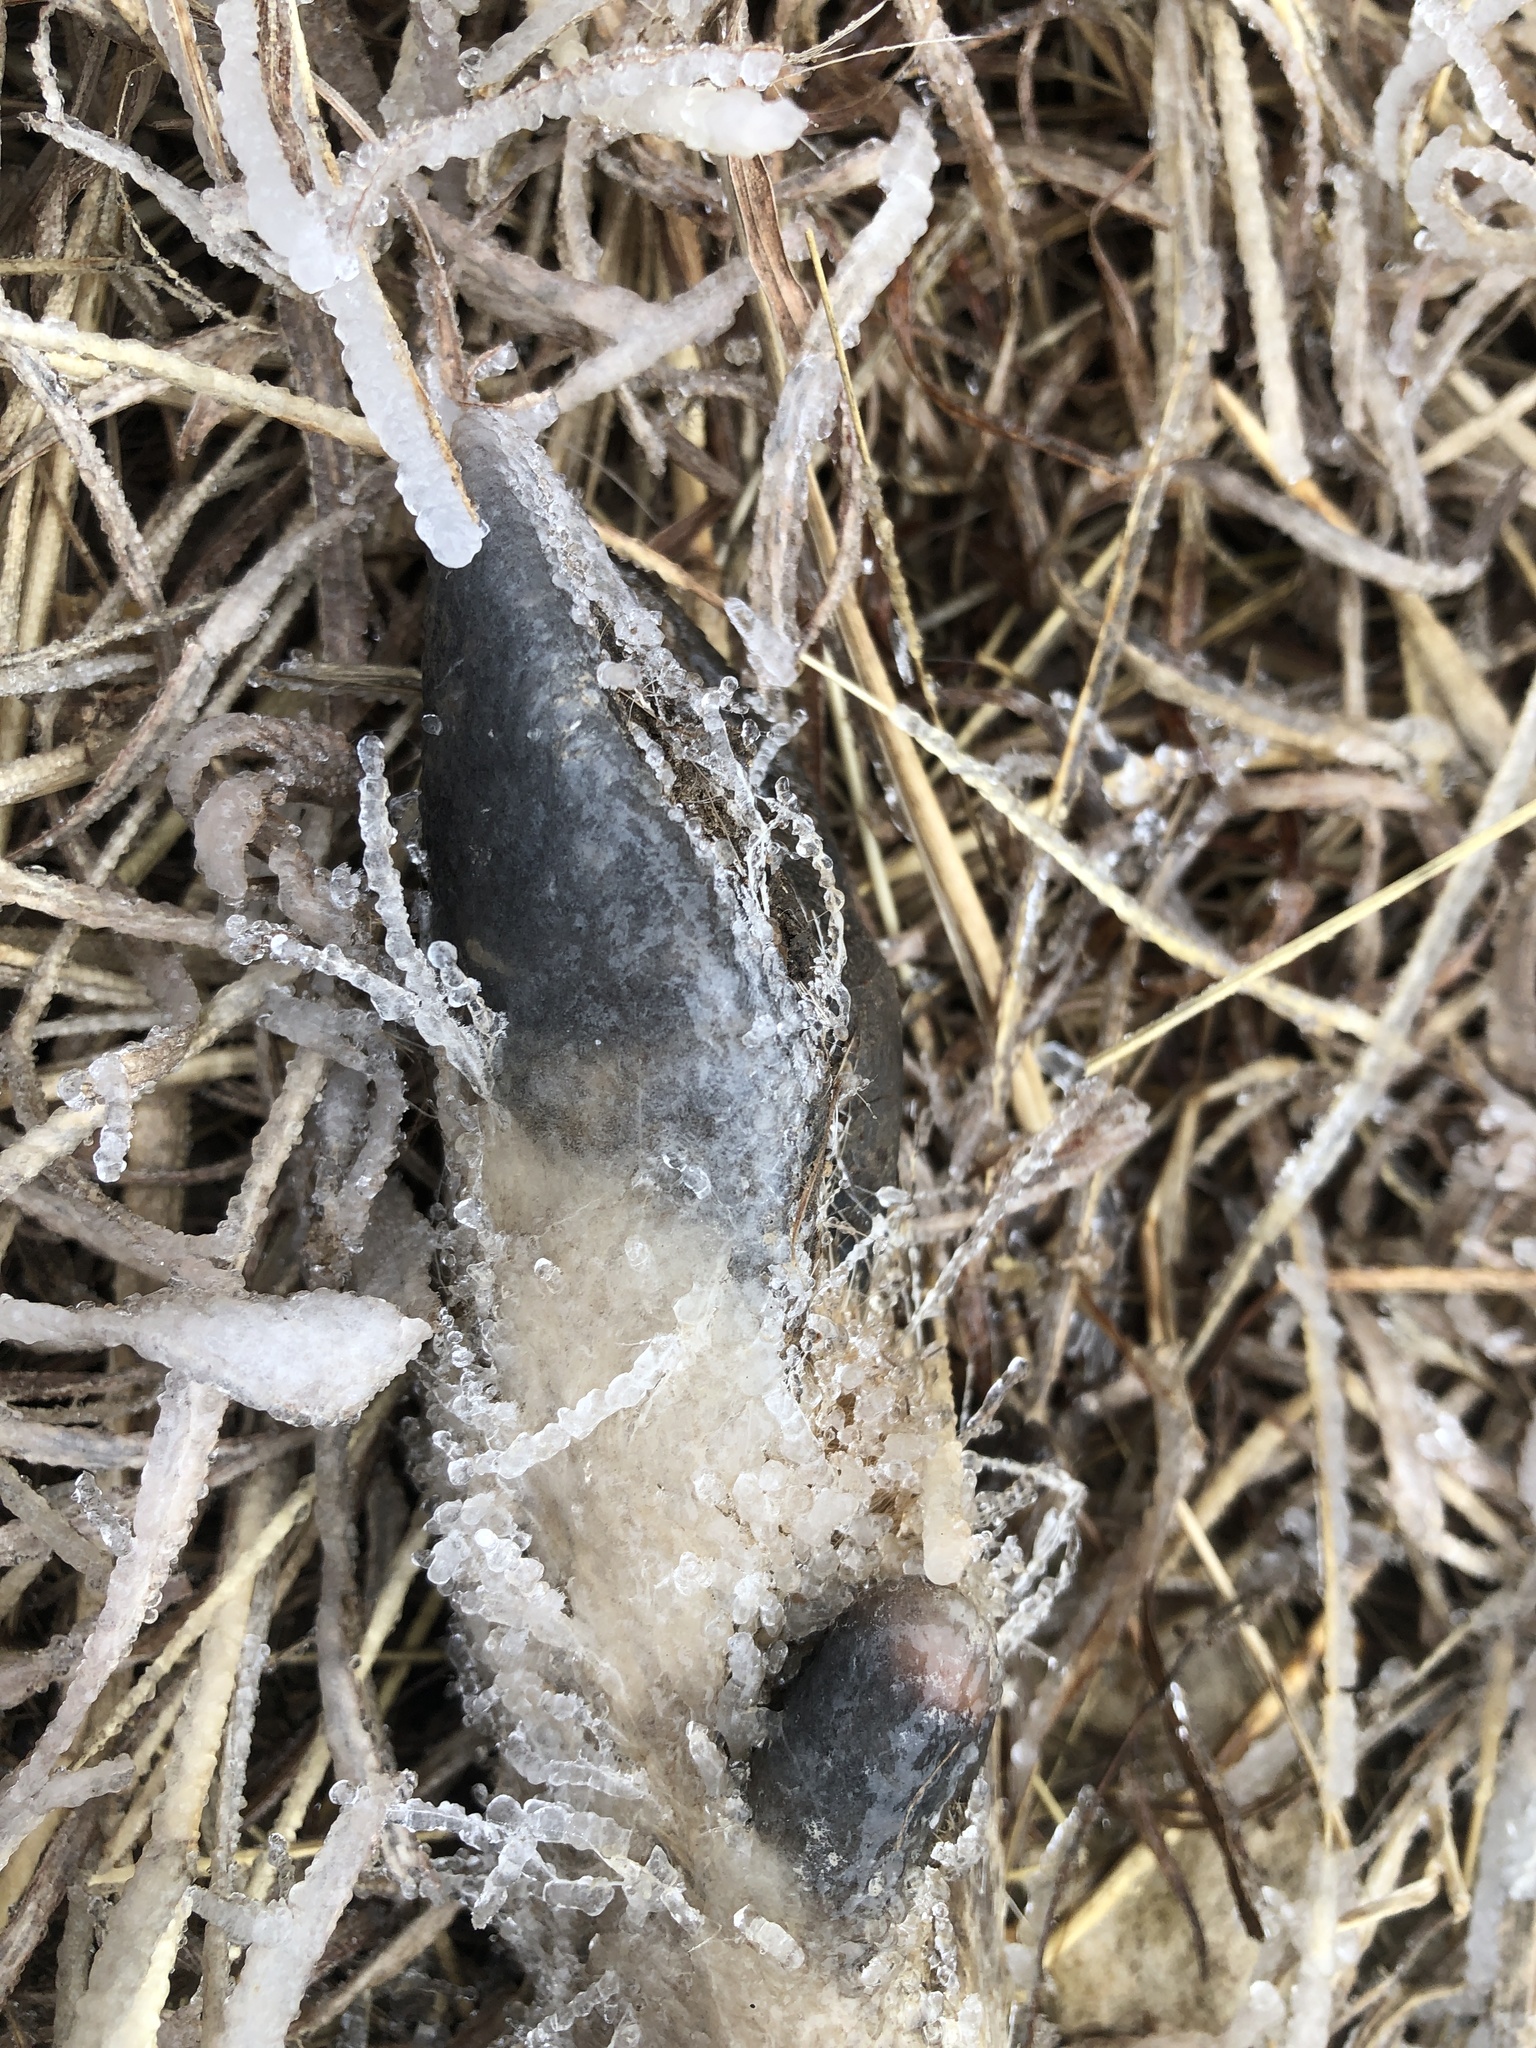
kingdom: Animalia
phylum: Chordata
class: Mammalia
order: Artiodactyla
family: Cervidae
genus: Odocoileus
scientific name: Odocoileus virginianus
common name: White-tailed deer
